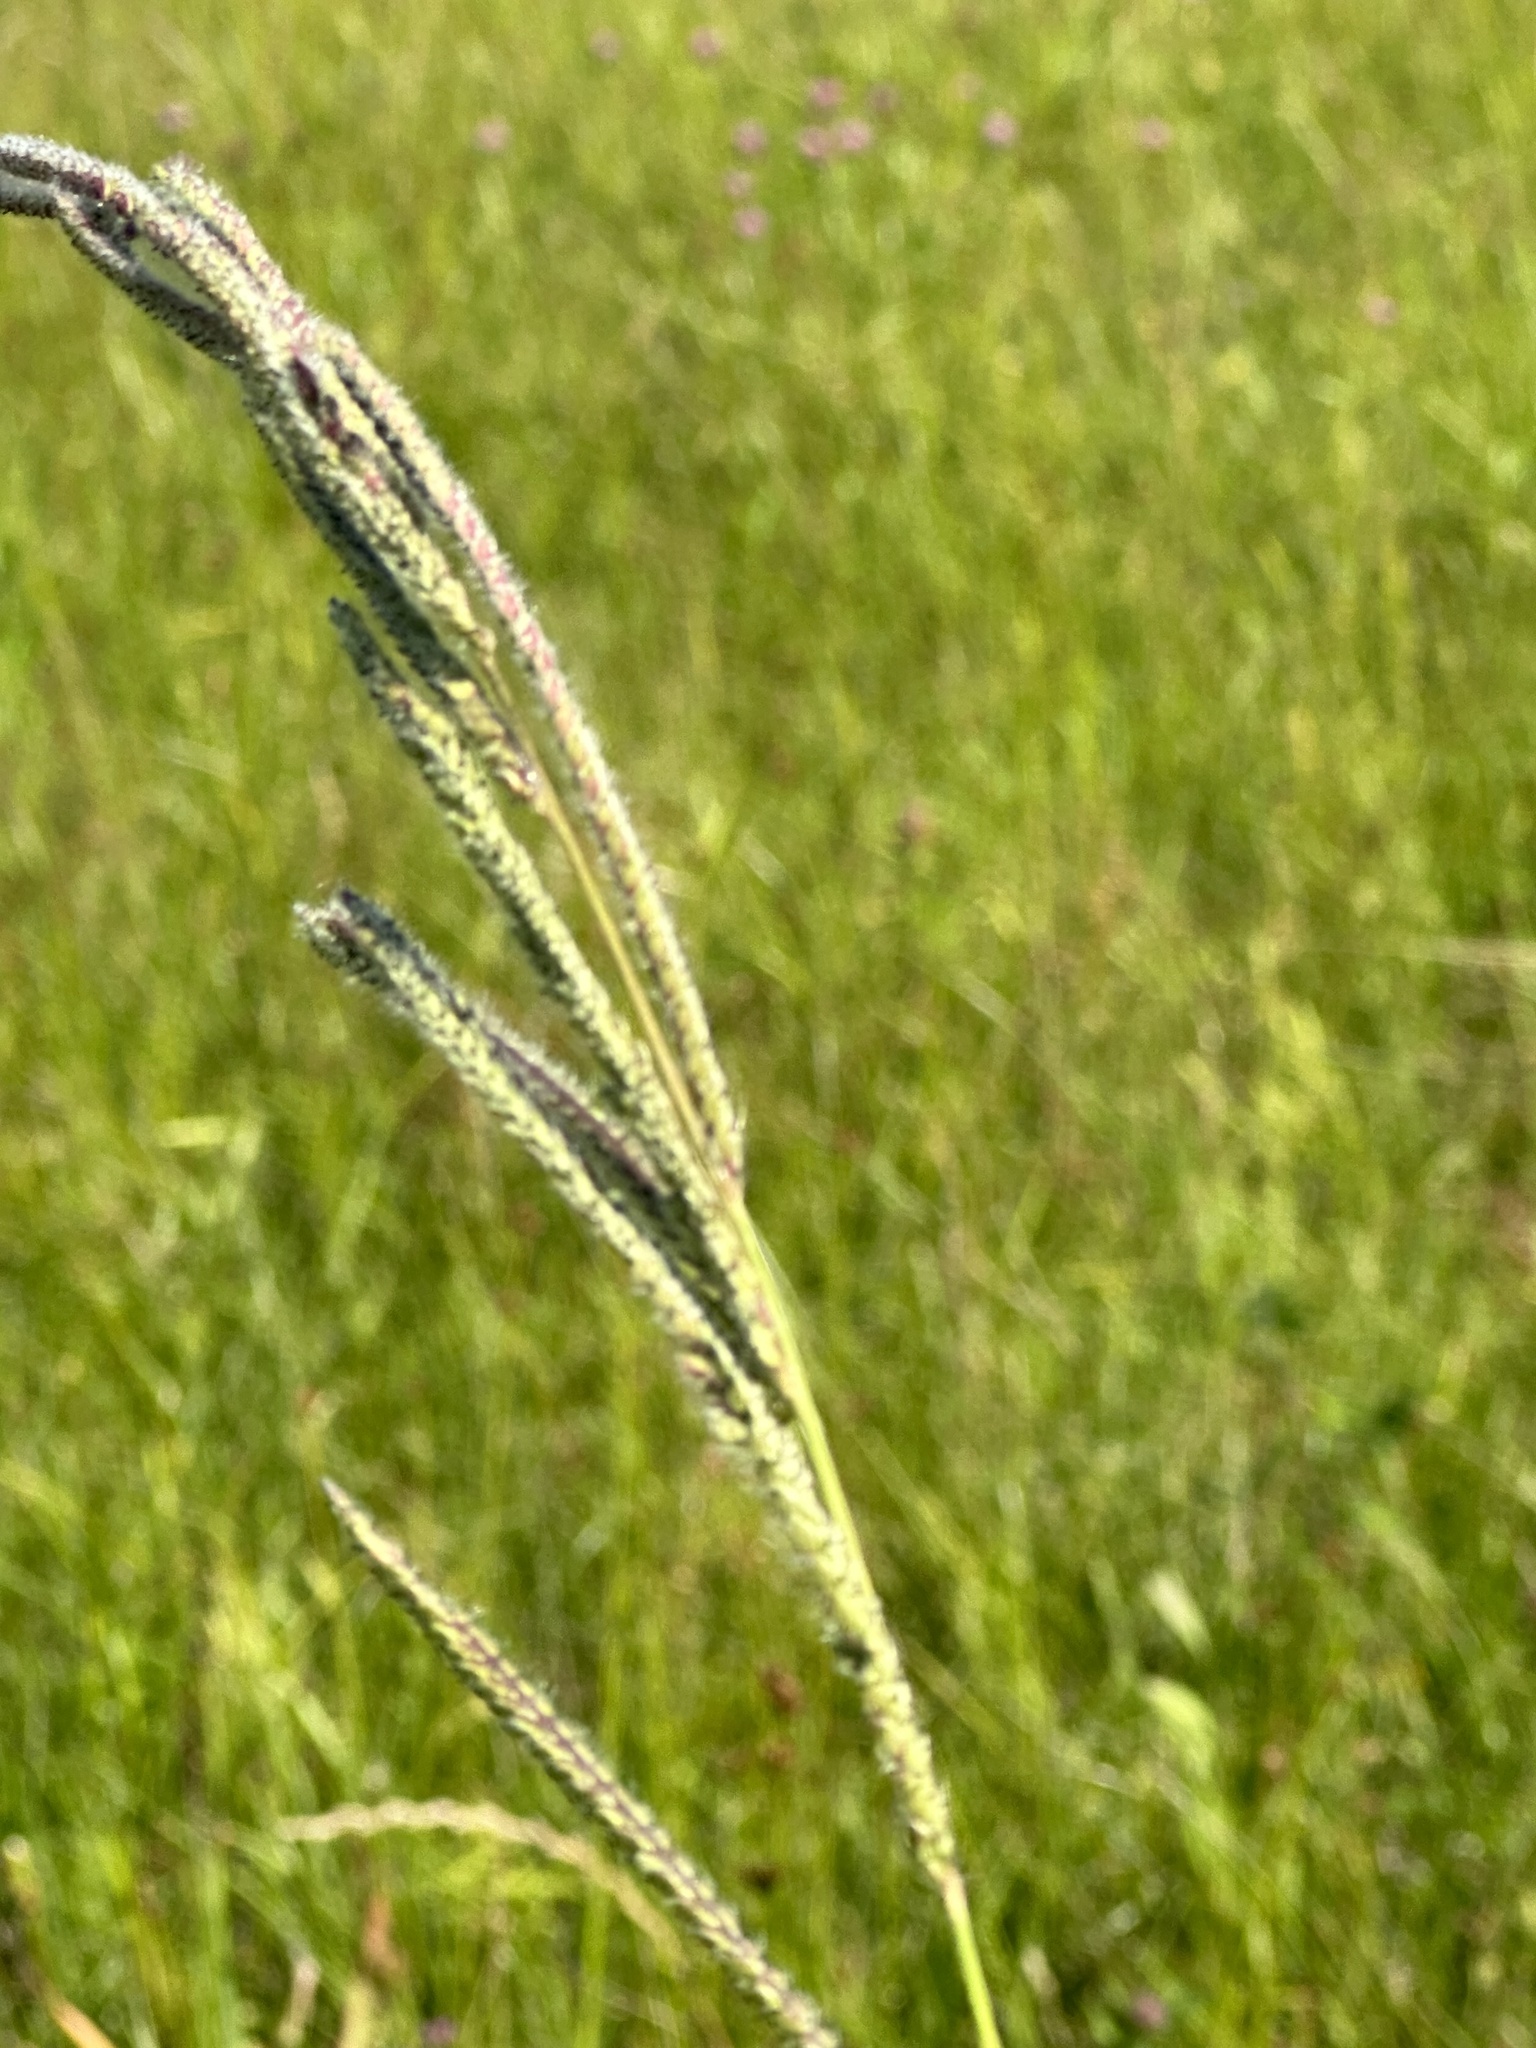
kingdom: Plantae
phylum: Tracheophyta
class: Liliopsida
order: Poales
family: Poaceae
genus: Paspalum
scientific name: Paspalum urvillei
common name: Vasey's grass
